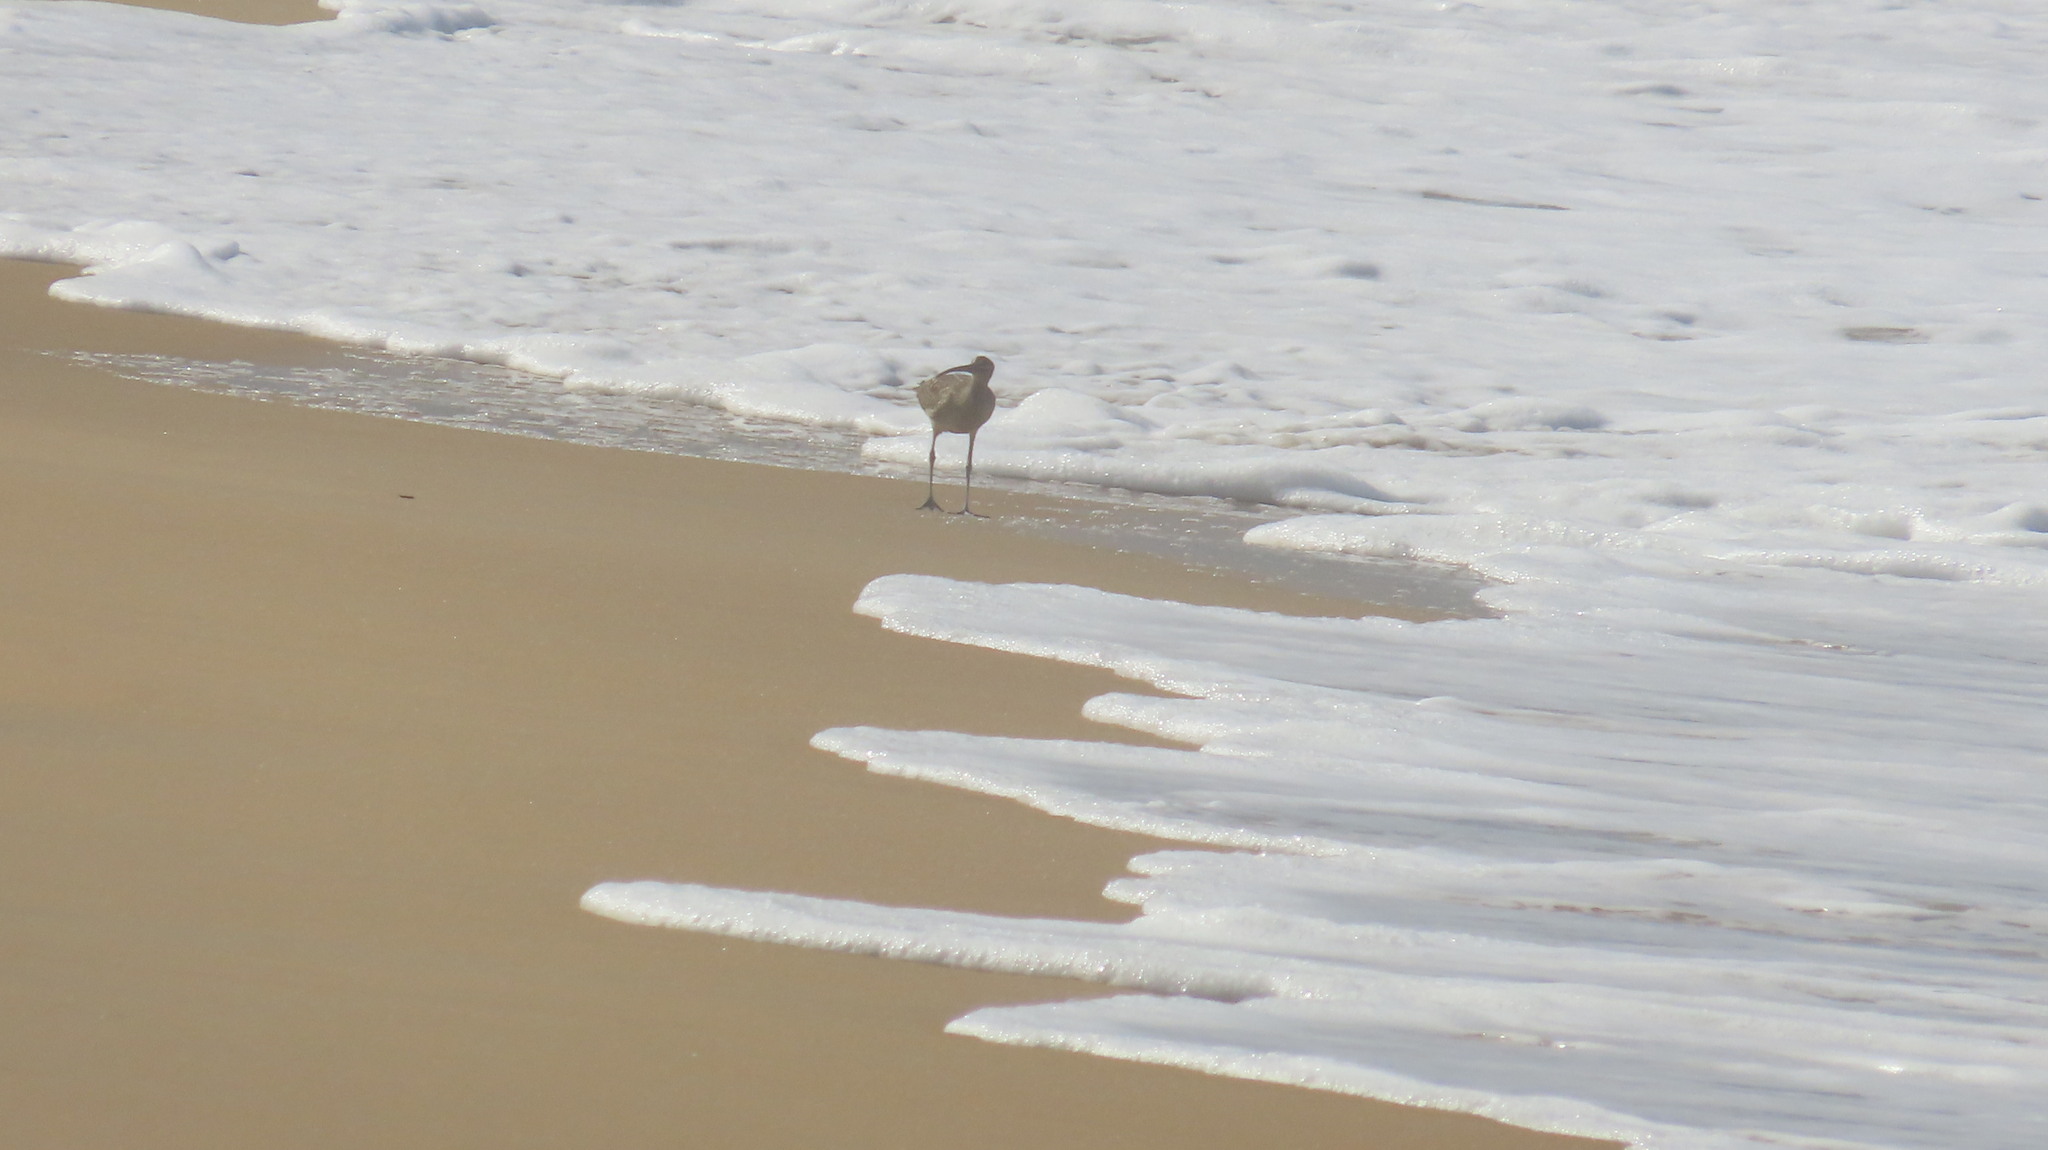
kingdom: Animalia
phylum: Chordata
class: Aves
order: Charadriiformes
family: Scolopacidae
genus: Numenius
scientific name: Numenius phaeopus
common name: Whimbrel
